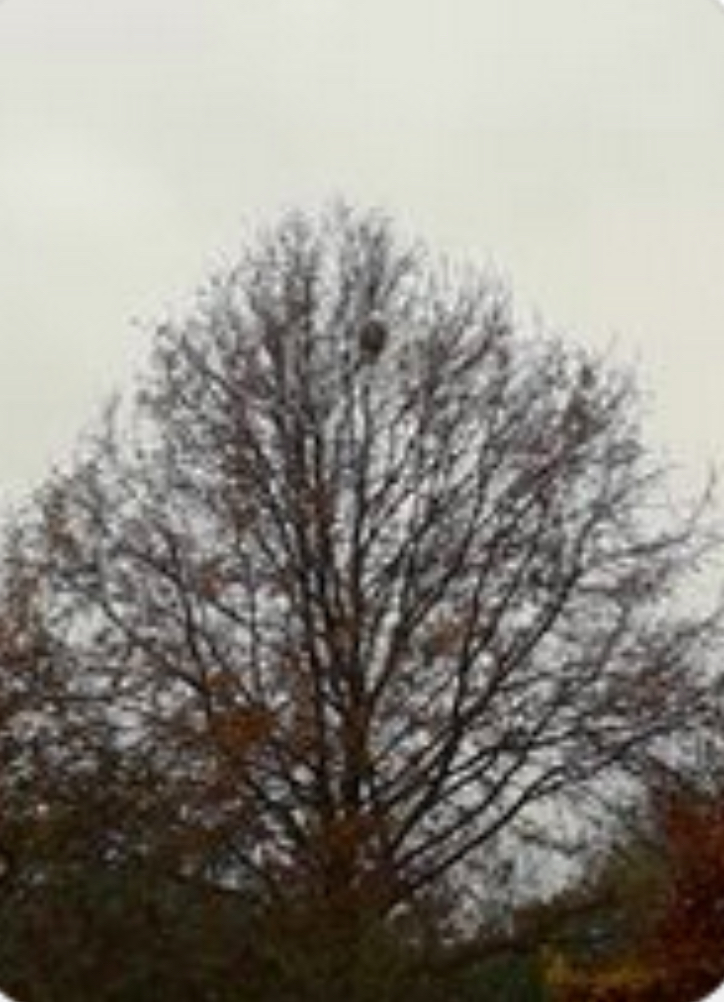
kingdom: Animalia
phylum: Arthropoda
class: Insecta
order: Hymenoptera
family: Vespidae
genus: Vespa
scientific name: Vespa velutina
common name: Asian hornet
